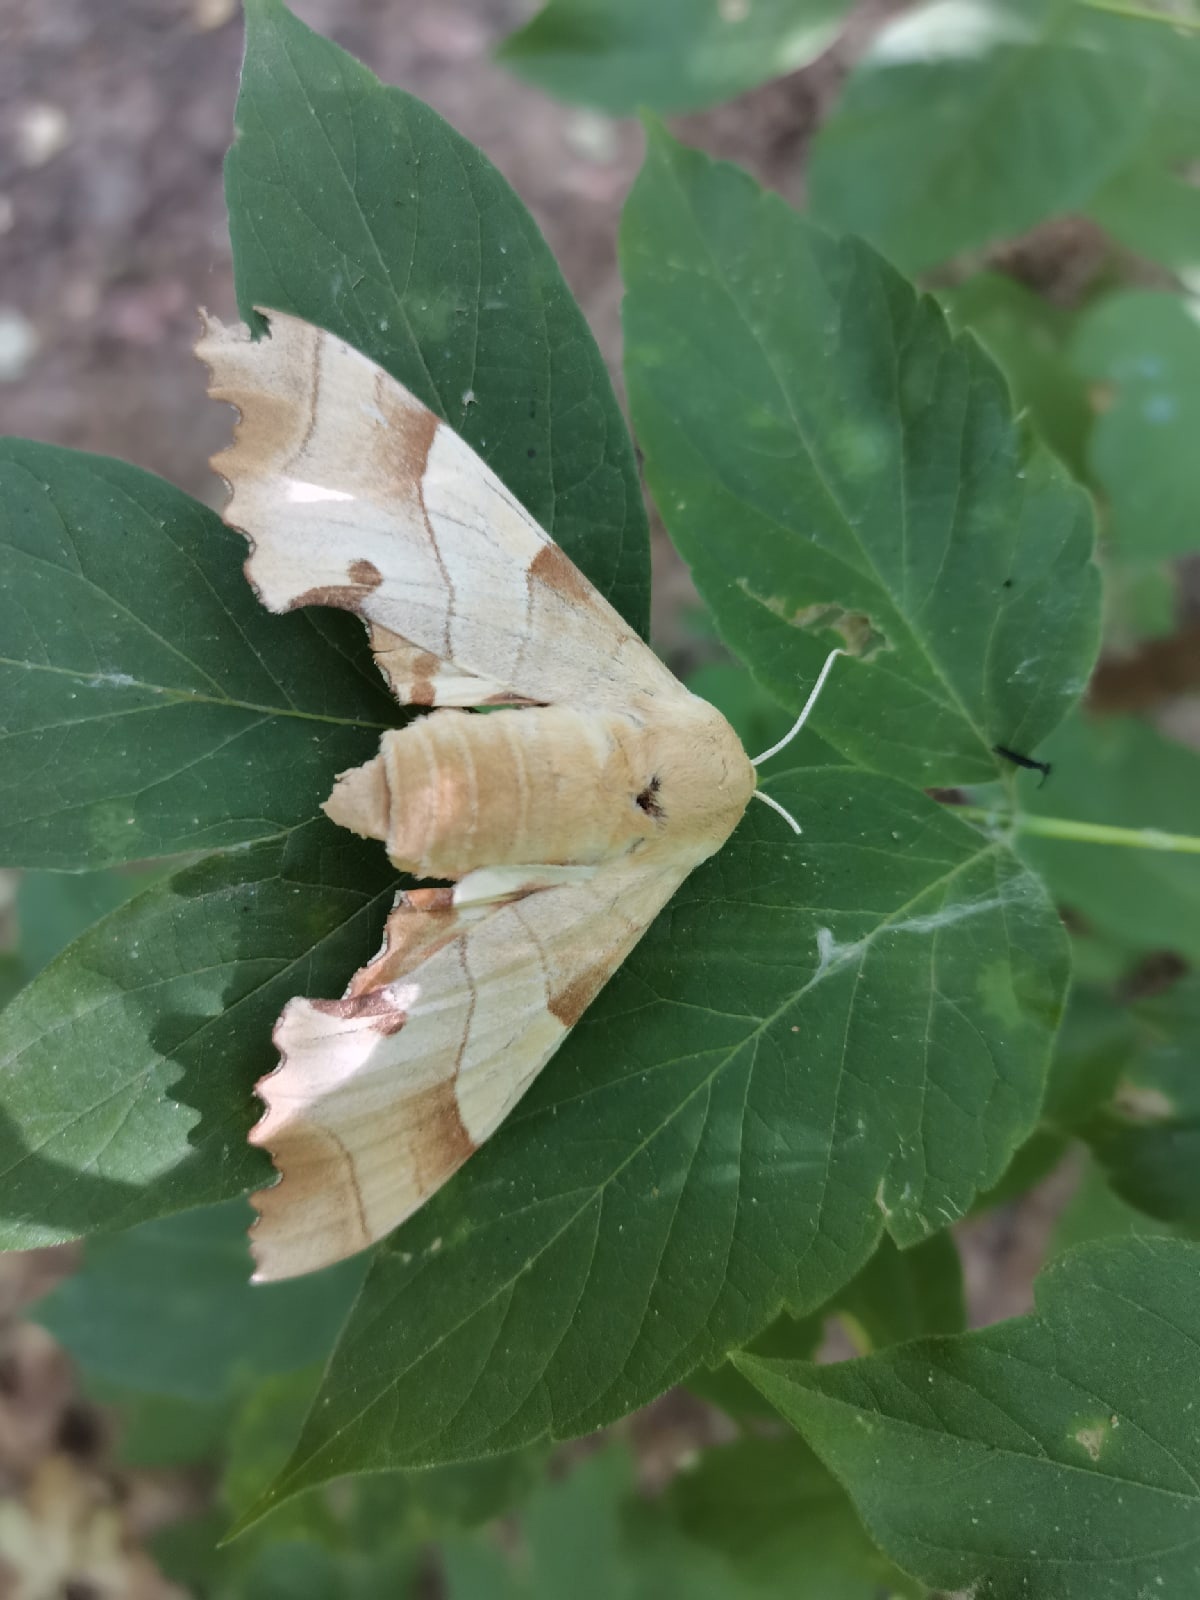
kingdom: Animalia
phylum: Arthropoda
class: Insecta
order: Lepidoptera
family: Sphingidae
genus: Marumba
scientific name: Marumba quercus
